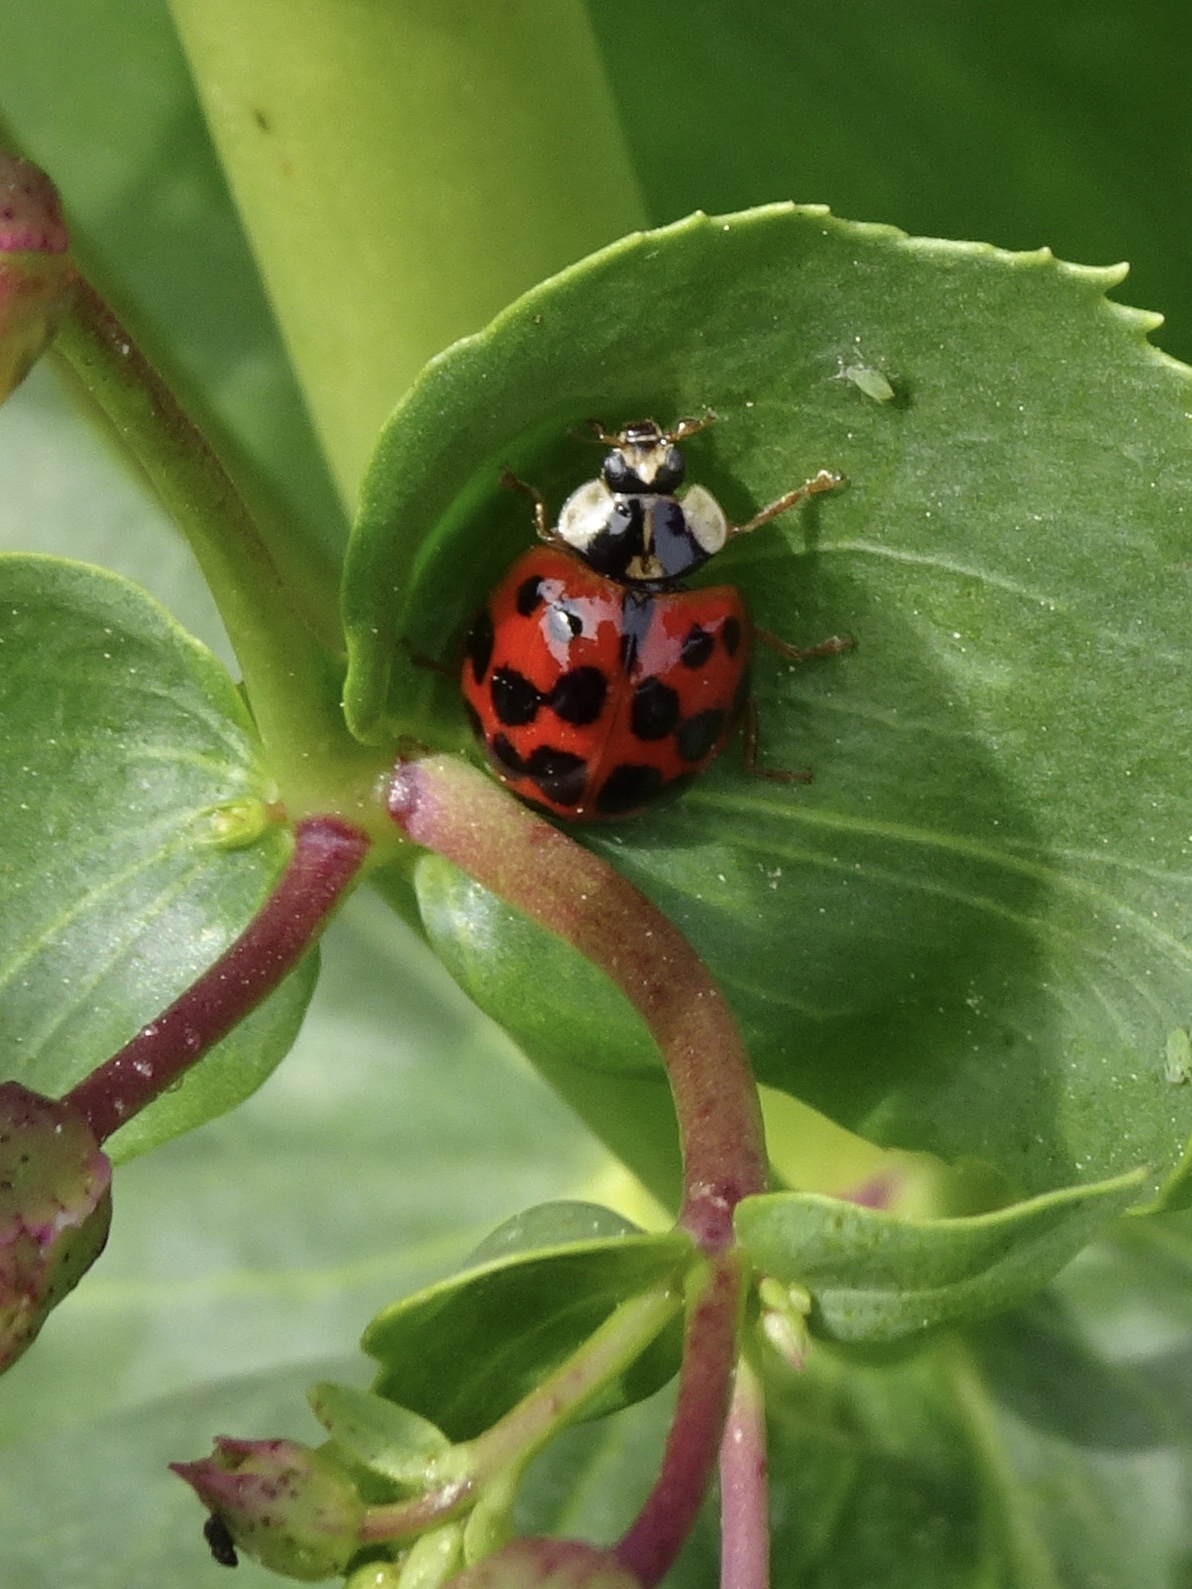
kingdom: Animalia
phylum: Arthropoda
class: Insecta
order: Coleoptera
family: Coccinellidae
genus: Harmonia
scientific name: Harmonia axyridis
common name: Harlequin ladybird
